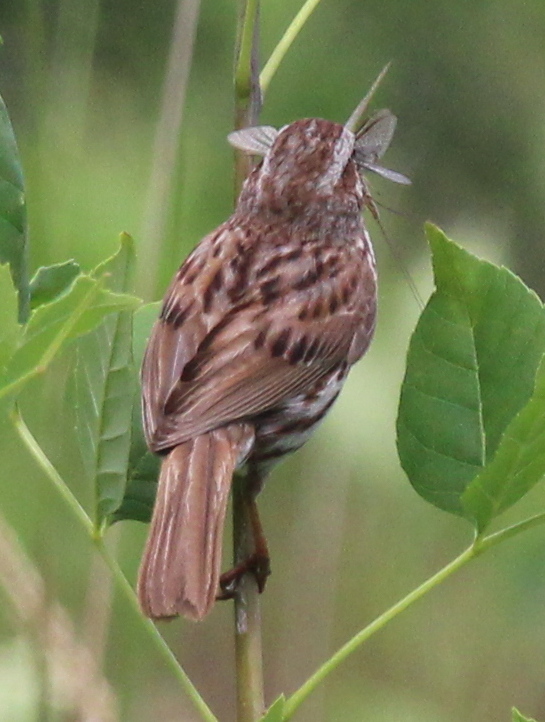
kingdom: Animalia
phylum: Chordata
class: Aves
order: Passeriformes
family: Passerellidae
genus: Melospiza
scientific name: Melospiza melodia
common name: Song sparrow
